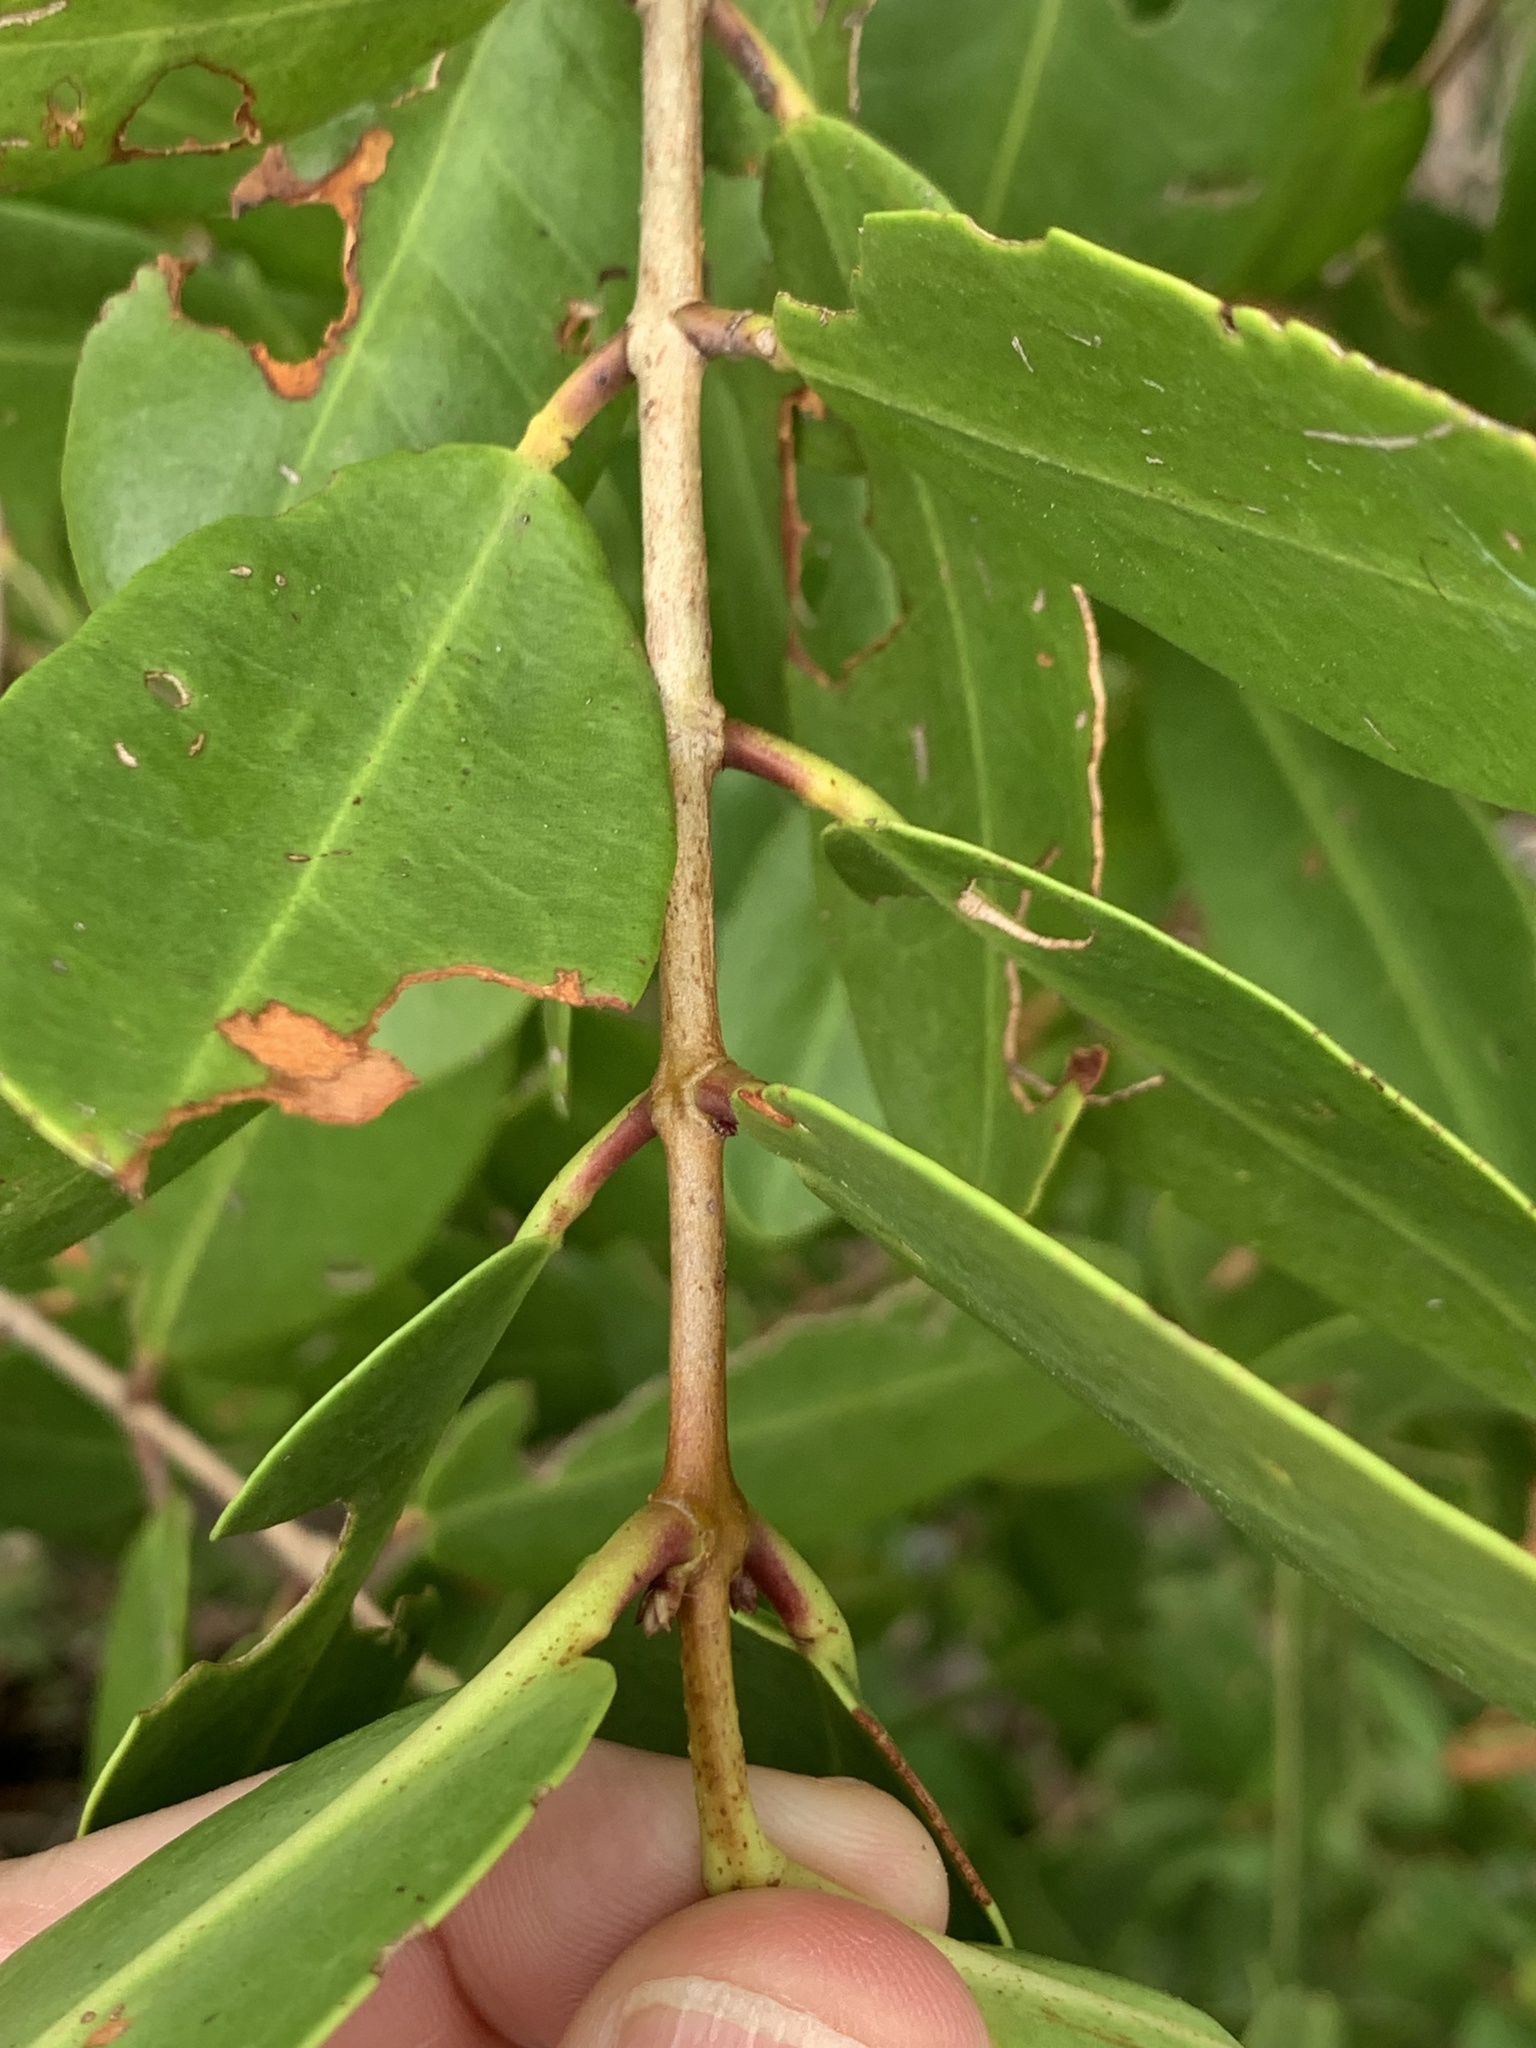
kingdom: Plantae
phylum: Tracheophyta
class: Magnoliopsida
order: Myrtales
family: Combretaceae
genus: Laguncularia
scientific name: Laguncularia racemosa
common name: White mangrove
